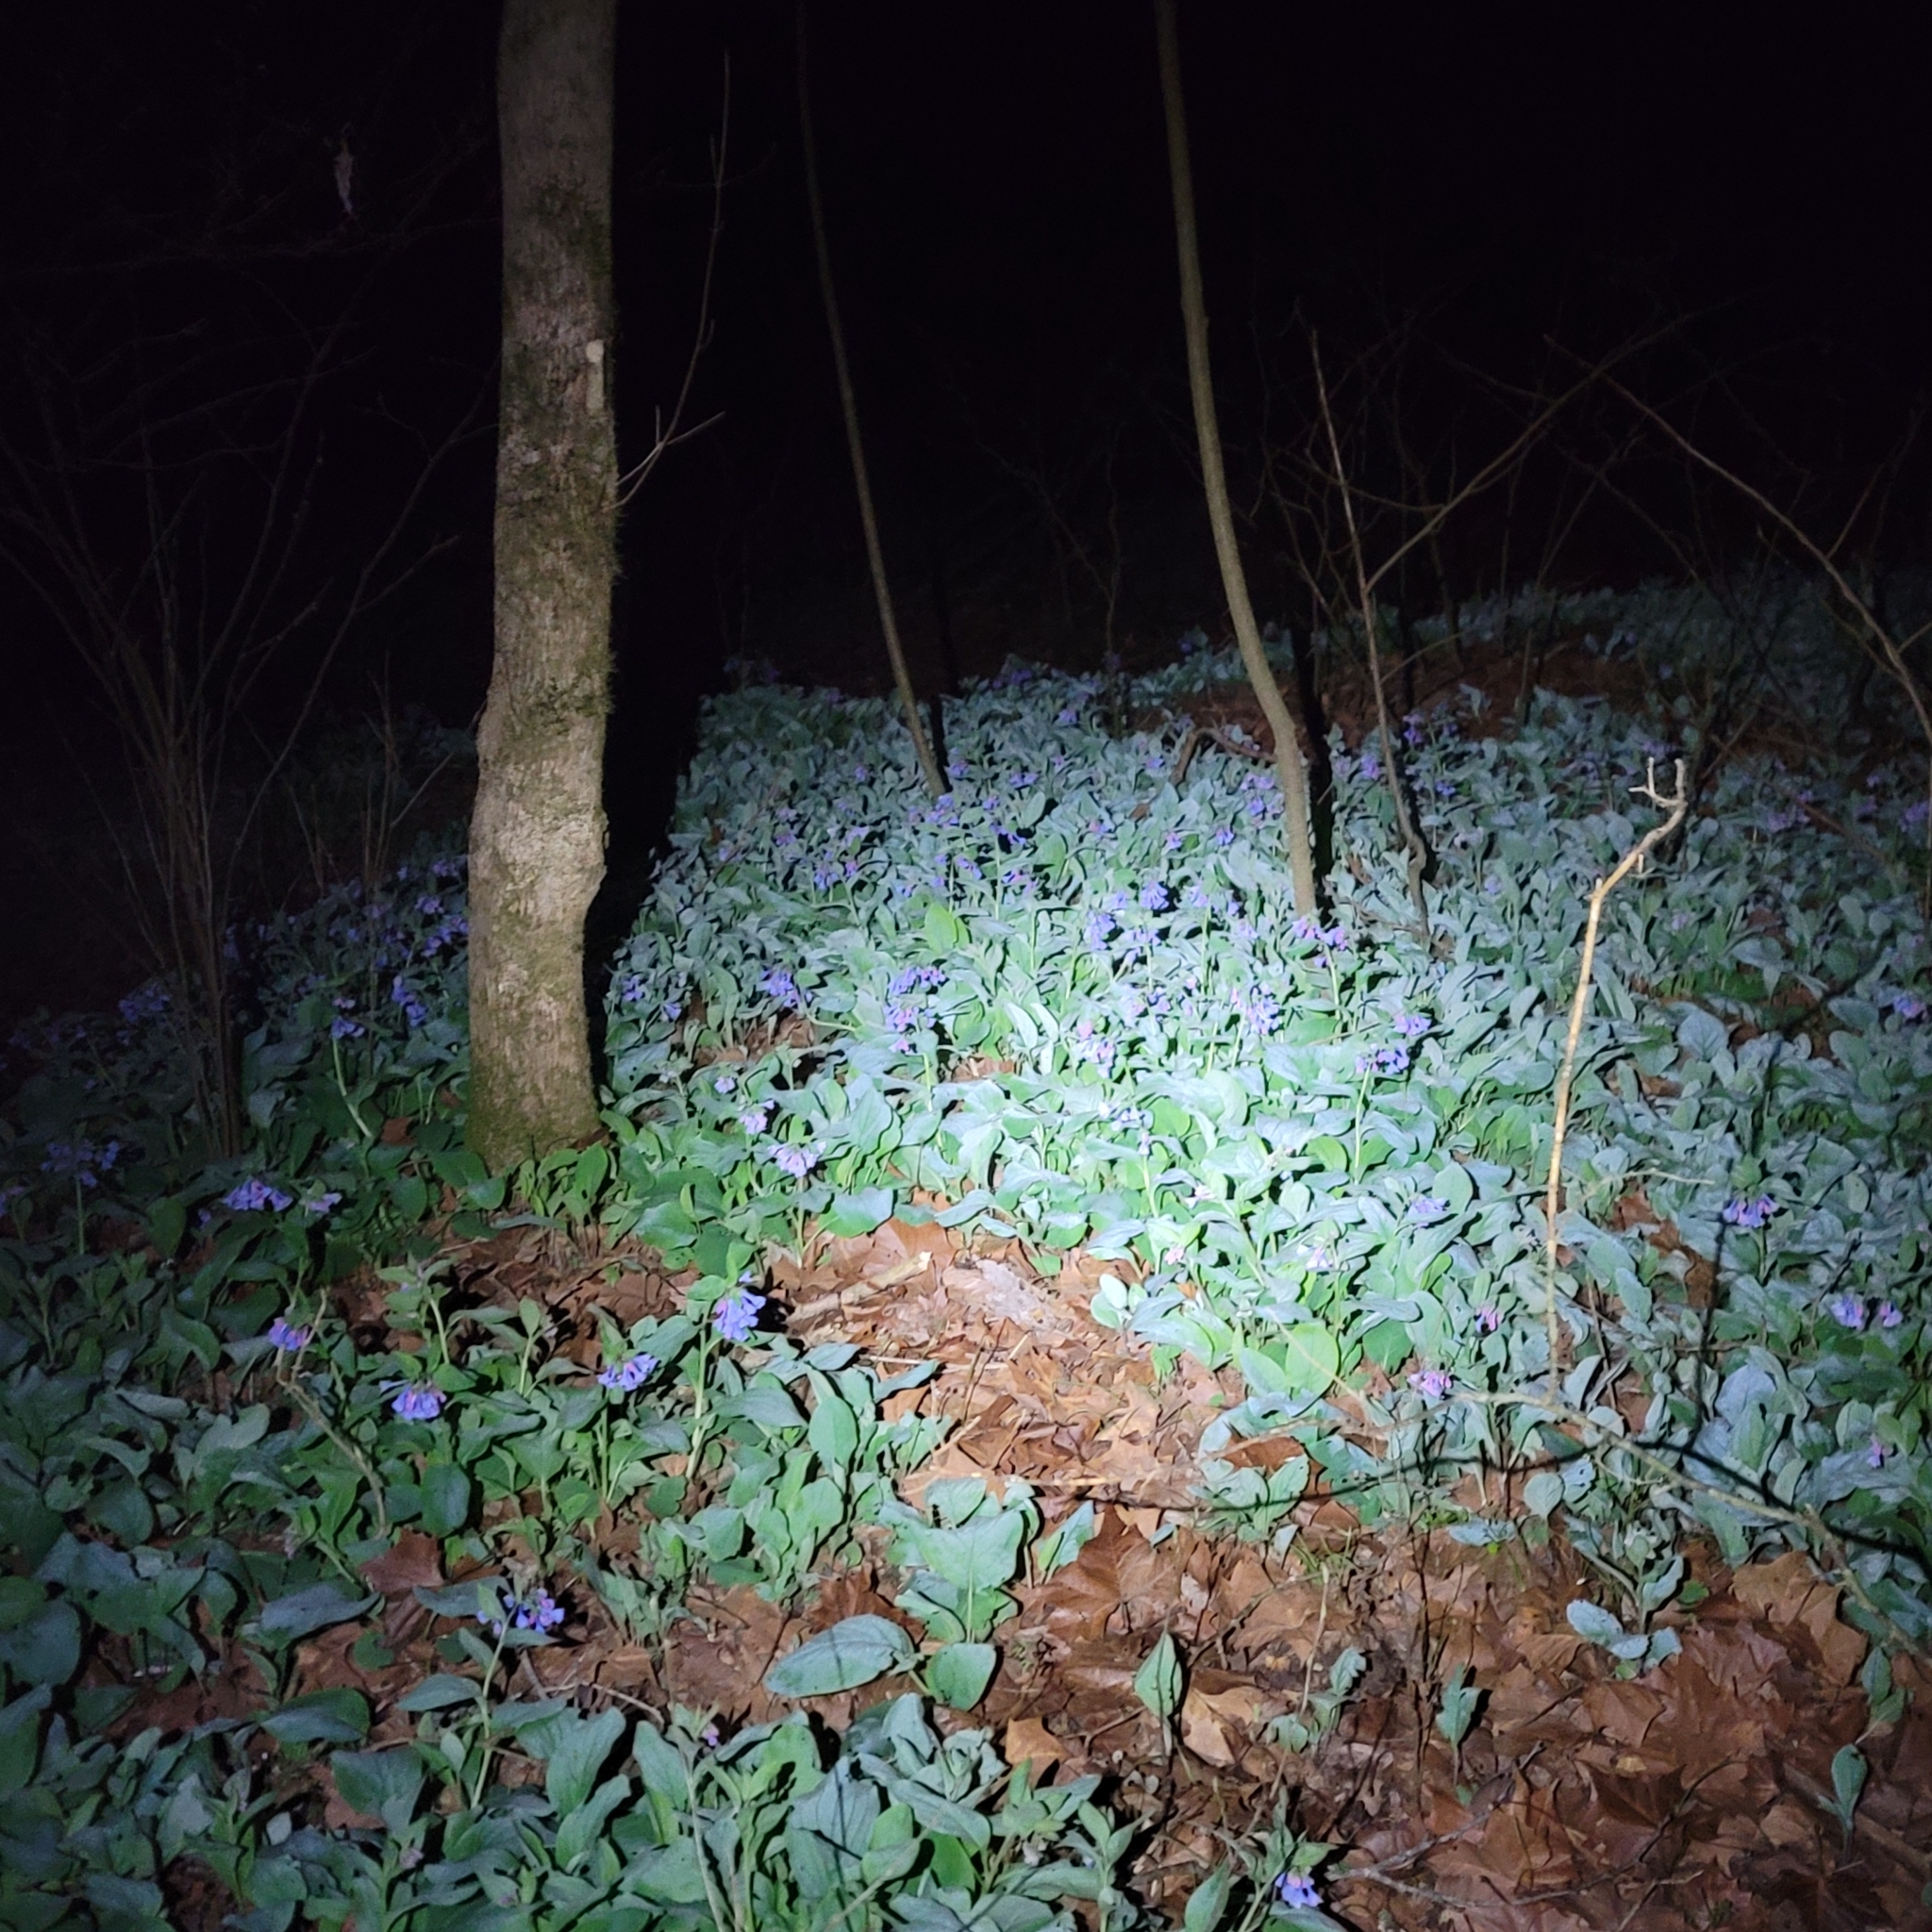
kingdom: Plantae
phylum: Tracheophyta
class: Magnoliopsida
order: Boraginales
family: Boraginaceae
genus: Mertensia
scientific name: Mertensia virginica
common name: Virginia bluebells
